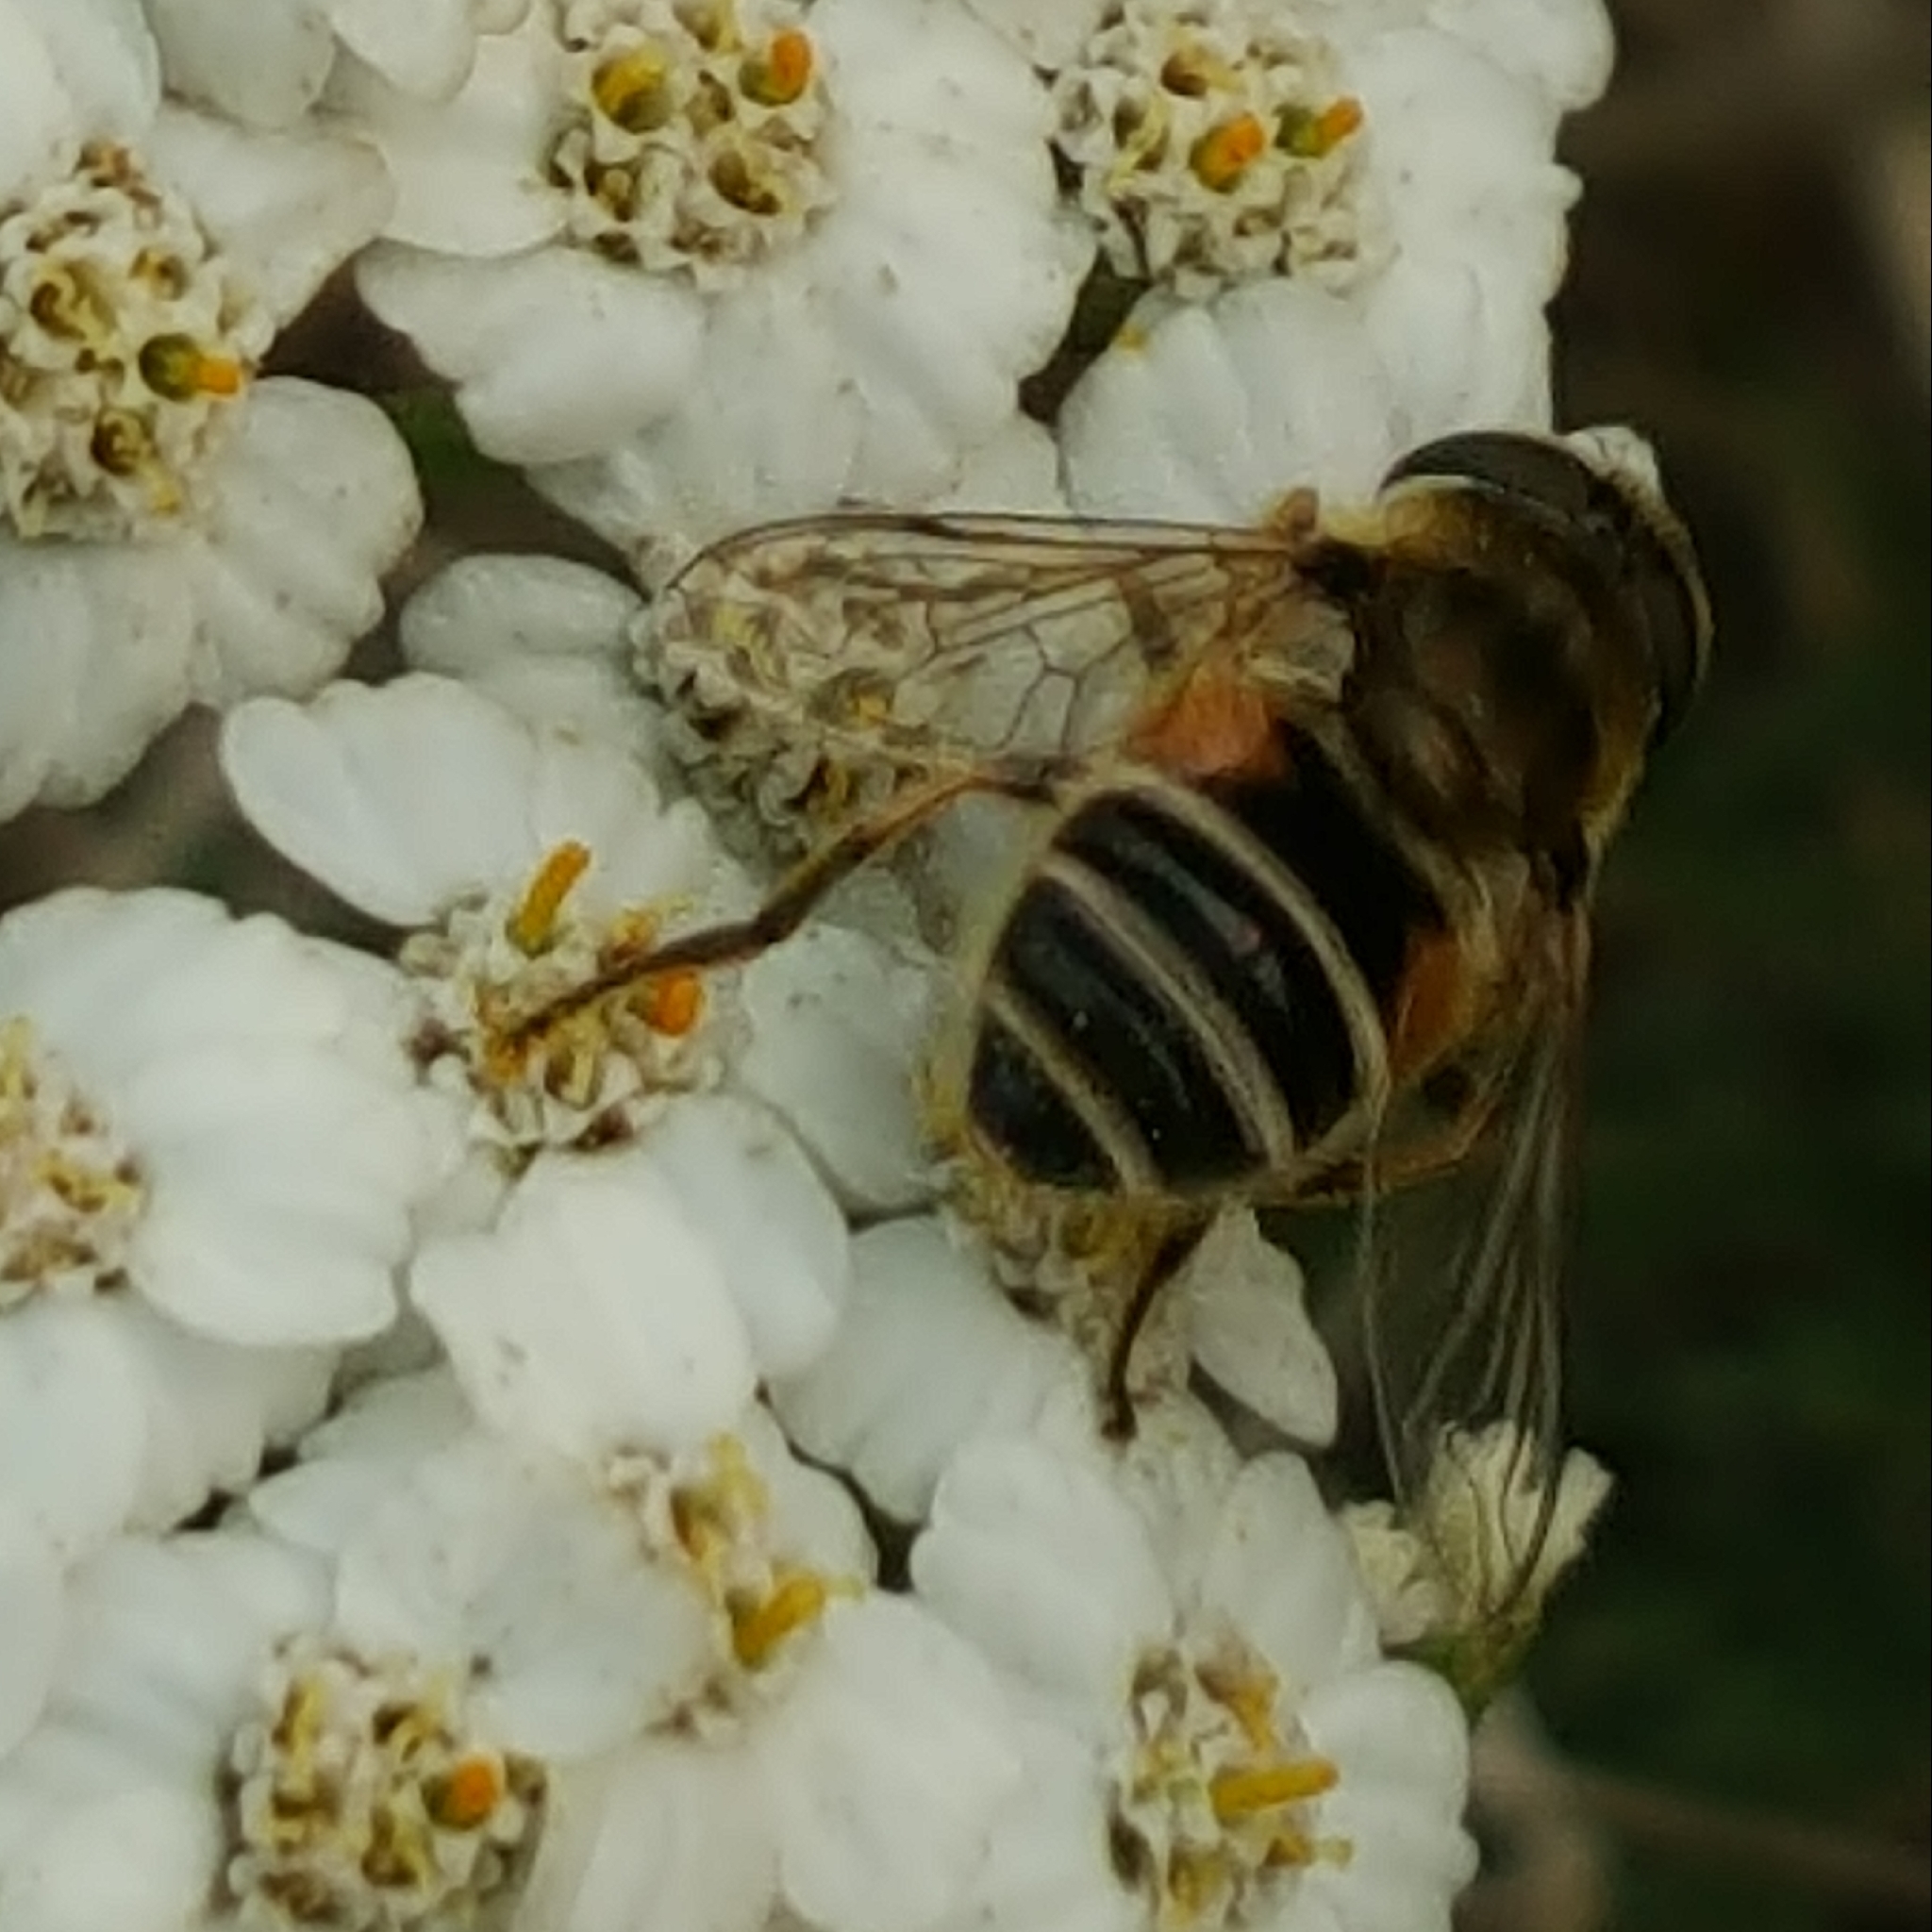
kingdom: Animalia
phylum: Arthropoda
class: Insecta
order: Diptera
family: Syrphidae
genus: Eristalis
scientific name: Eristalis arbustorum
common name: Hover fly
